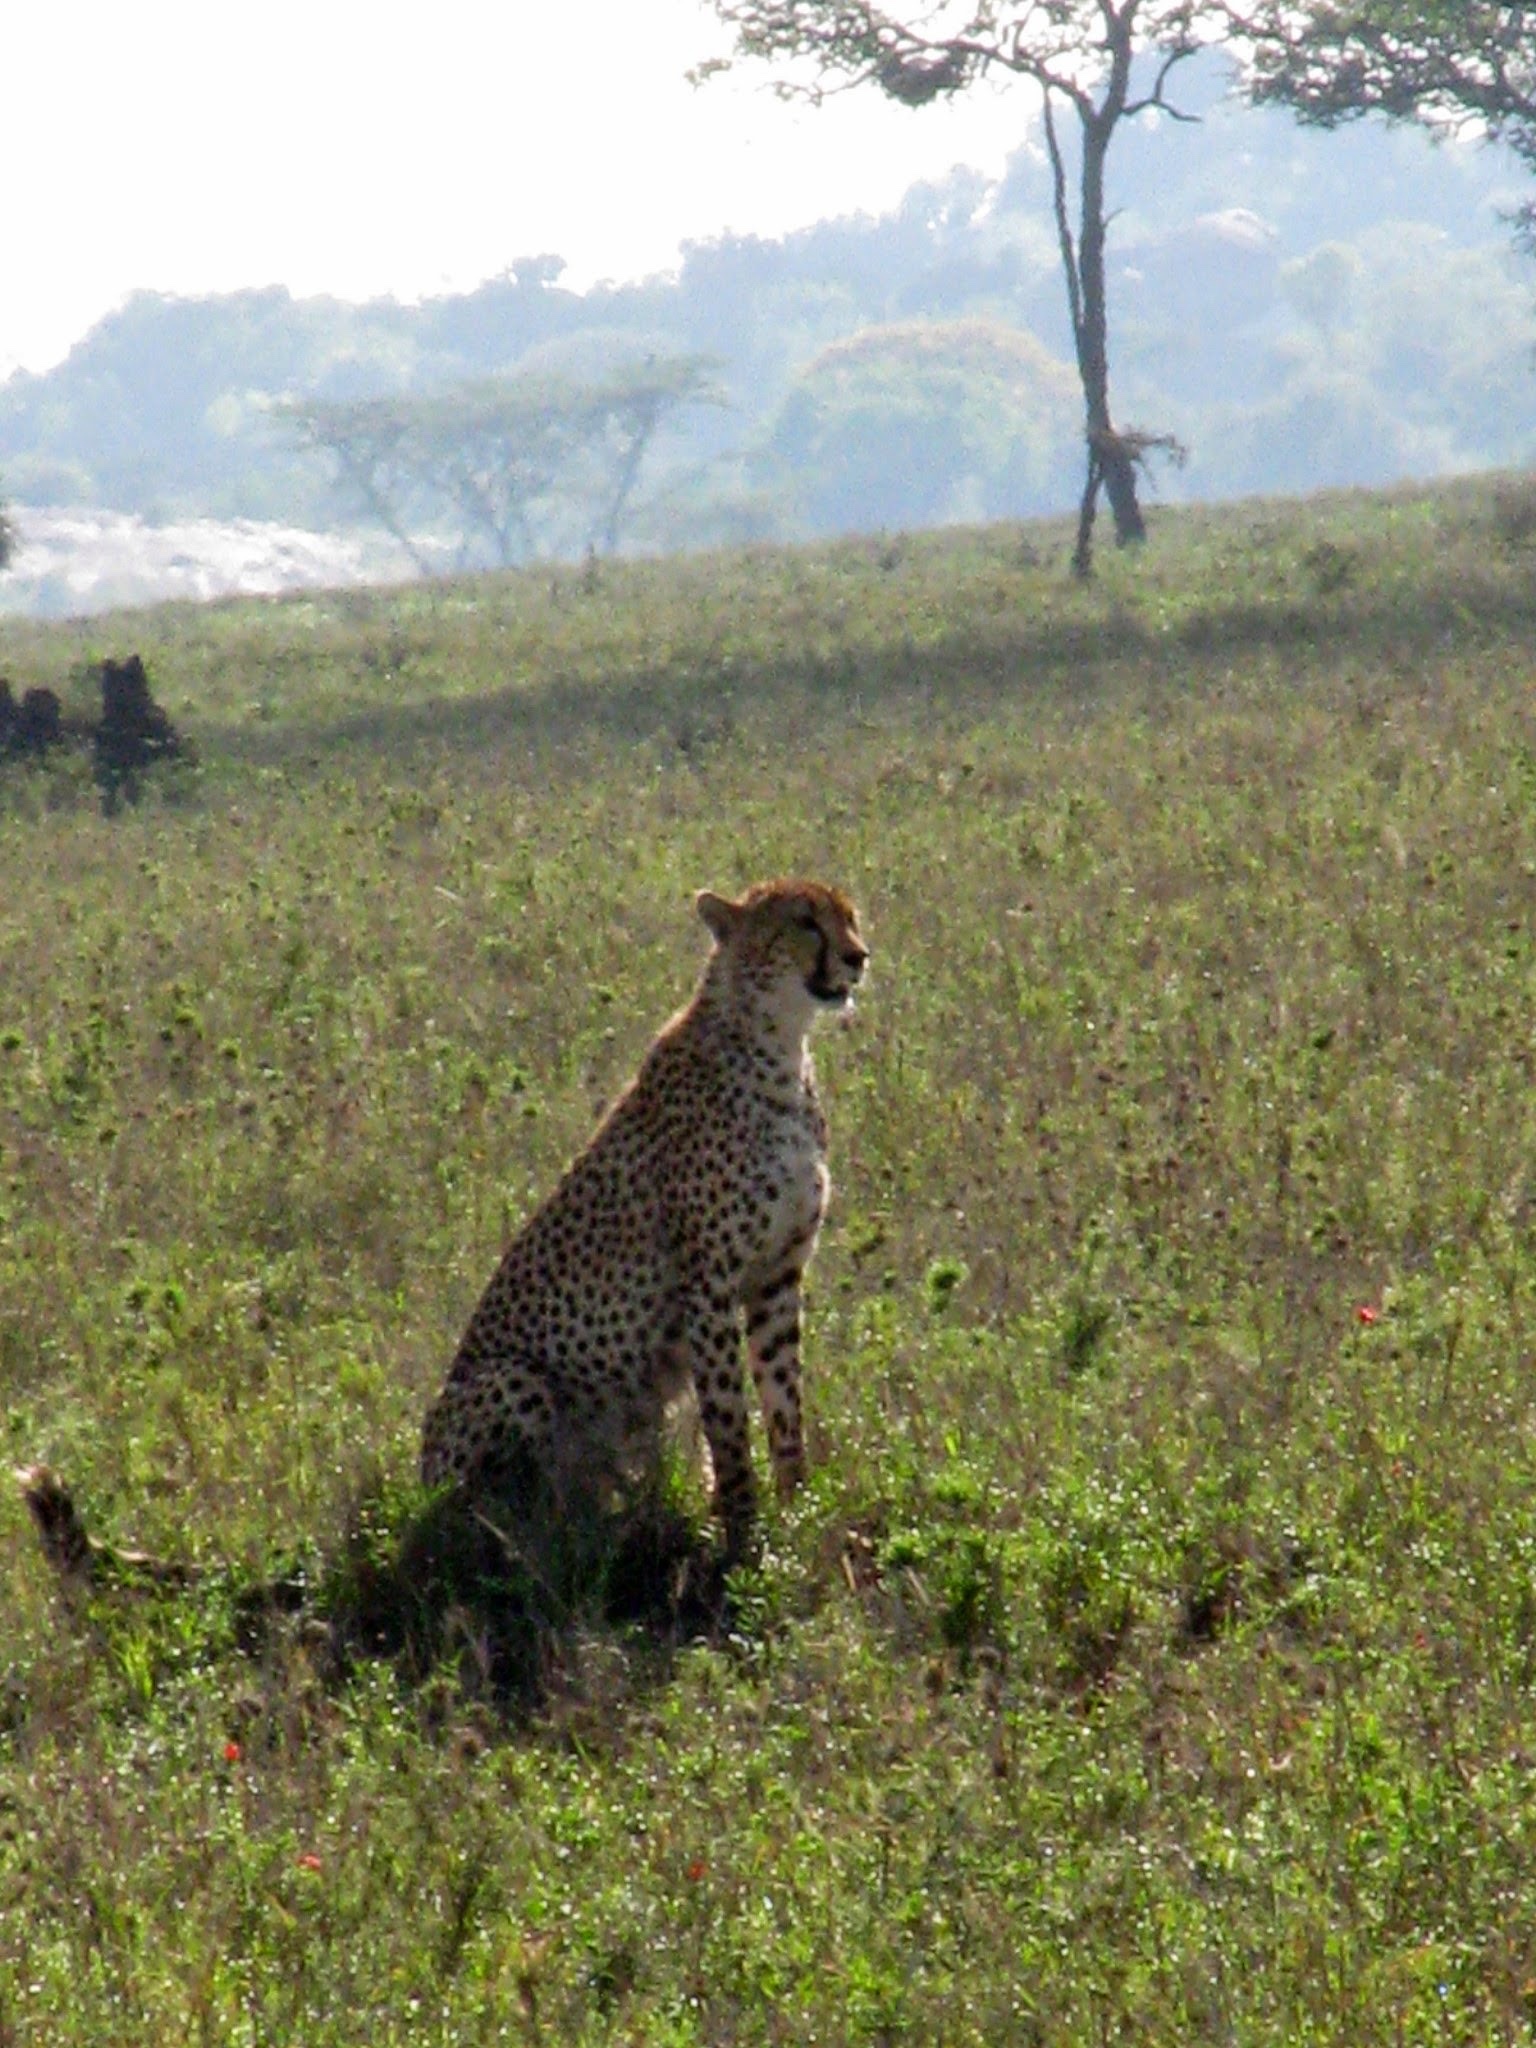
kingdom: Animalia
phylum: Chordata
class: Mammalia
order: Carnivora
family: Felidae
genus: Acinonyx
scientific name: Acinonyx jubatus
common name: Cheetah
